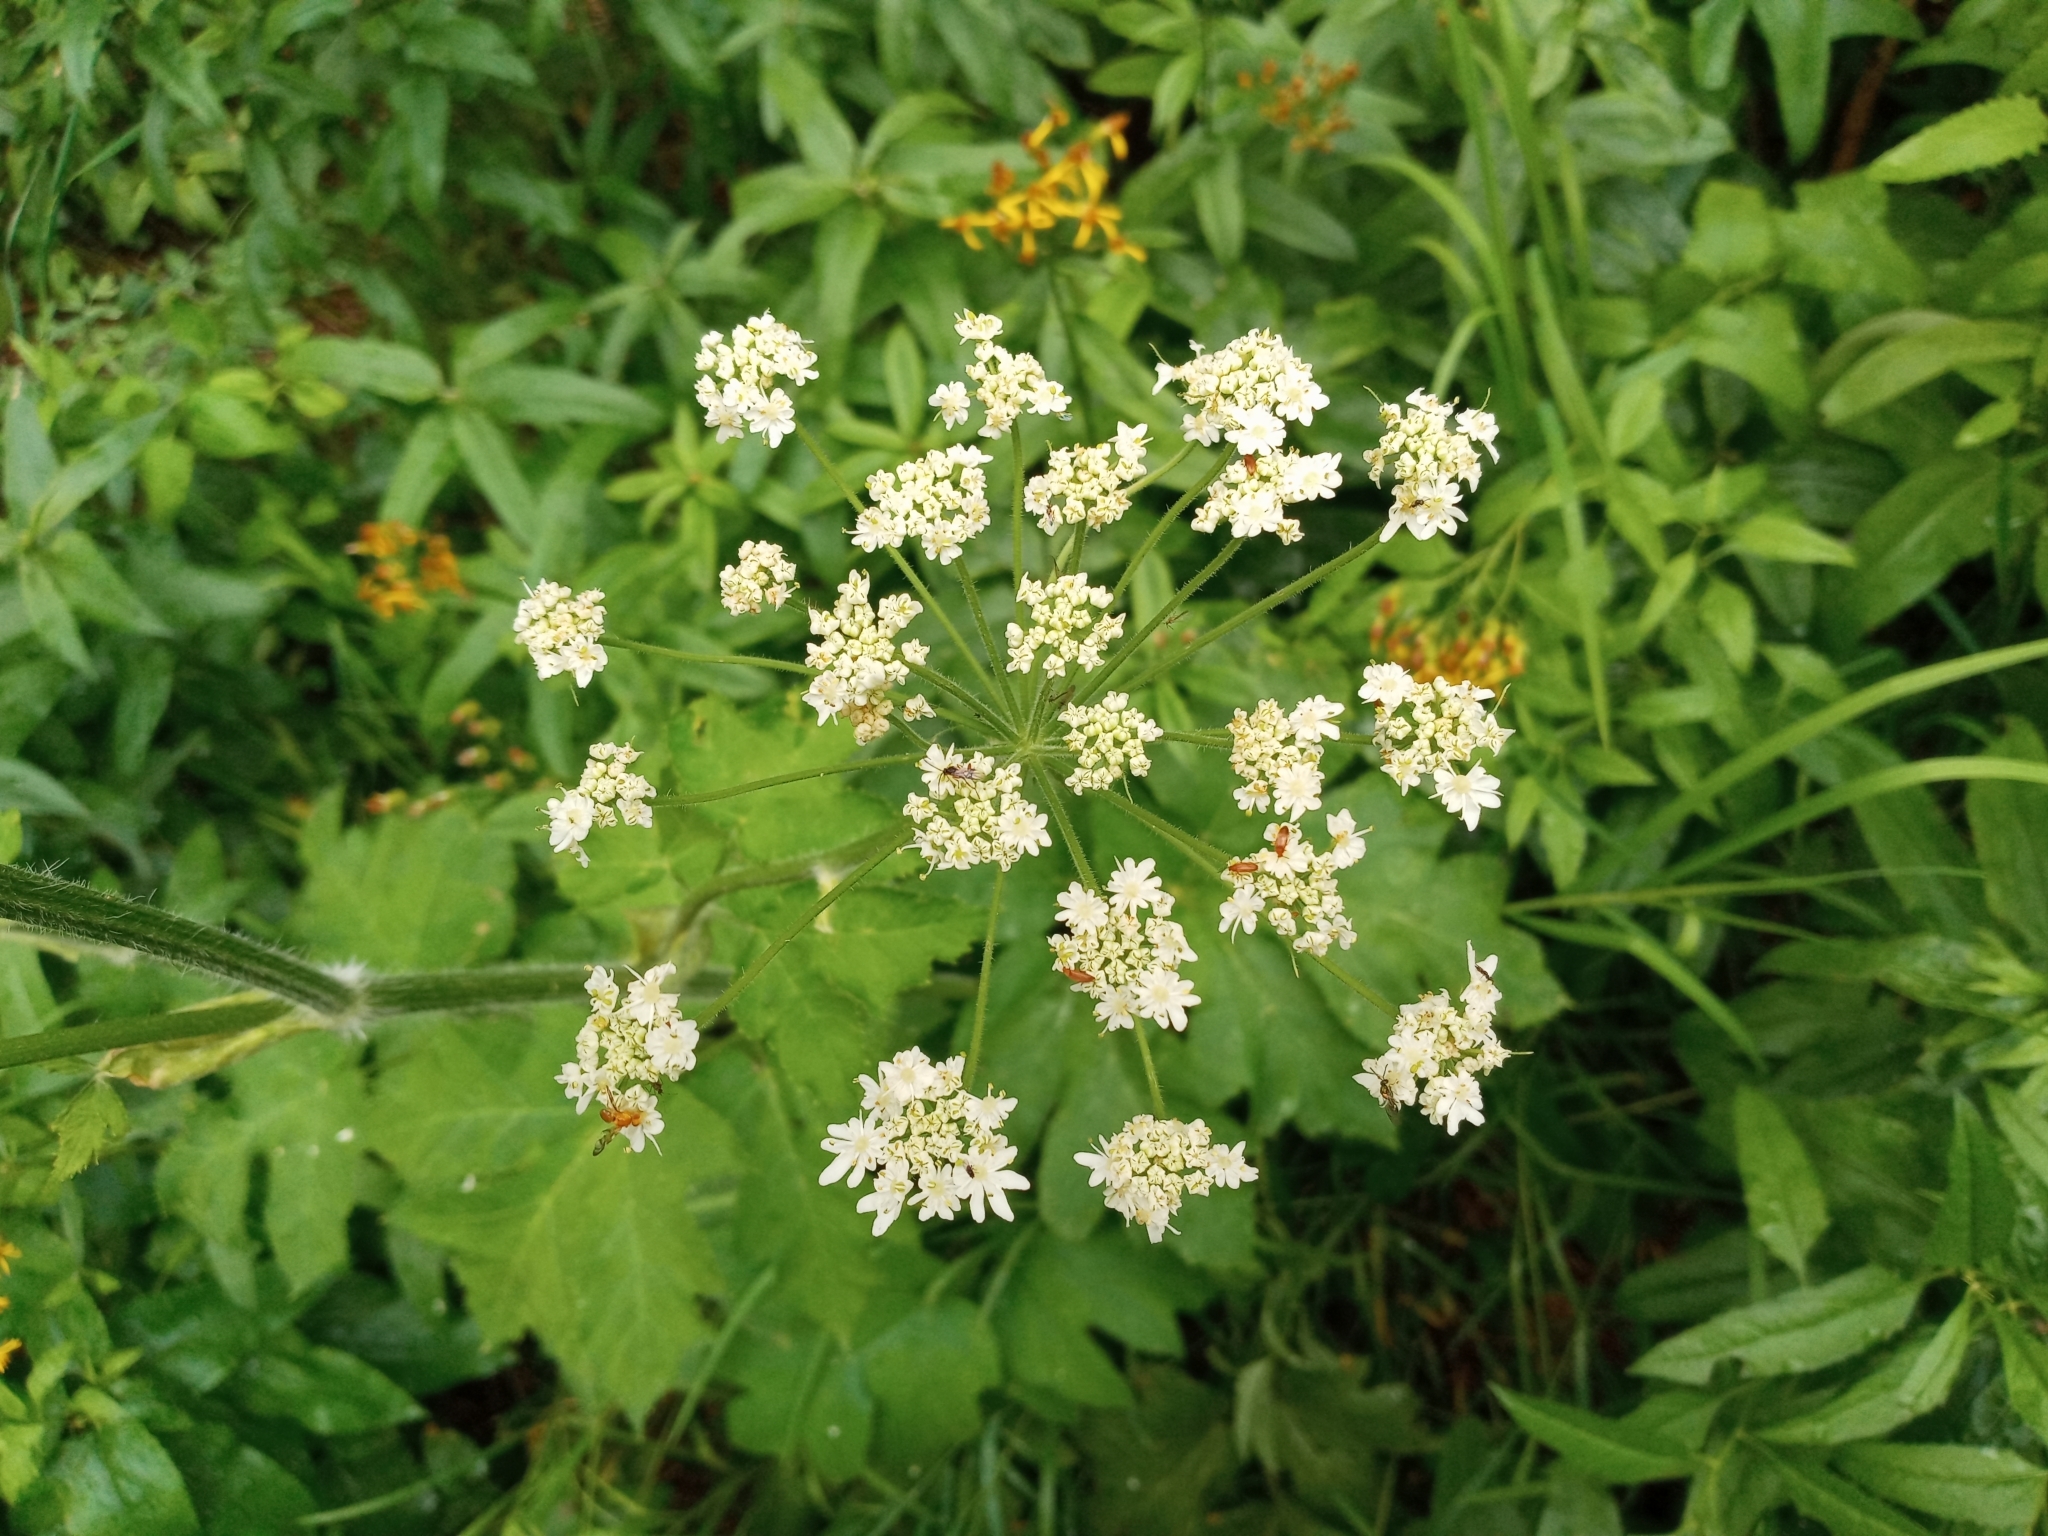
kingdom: Plantae
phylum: Tracheophyta
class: Magnoliopsida
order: Apiales
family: Apiaceae
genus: Heracleum
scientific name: Heracleum maximum
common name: American cow parsnip
